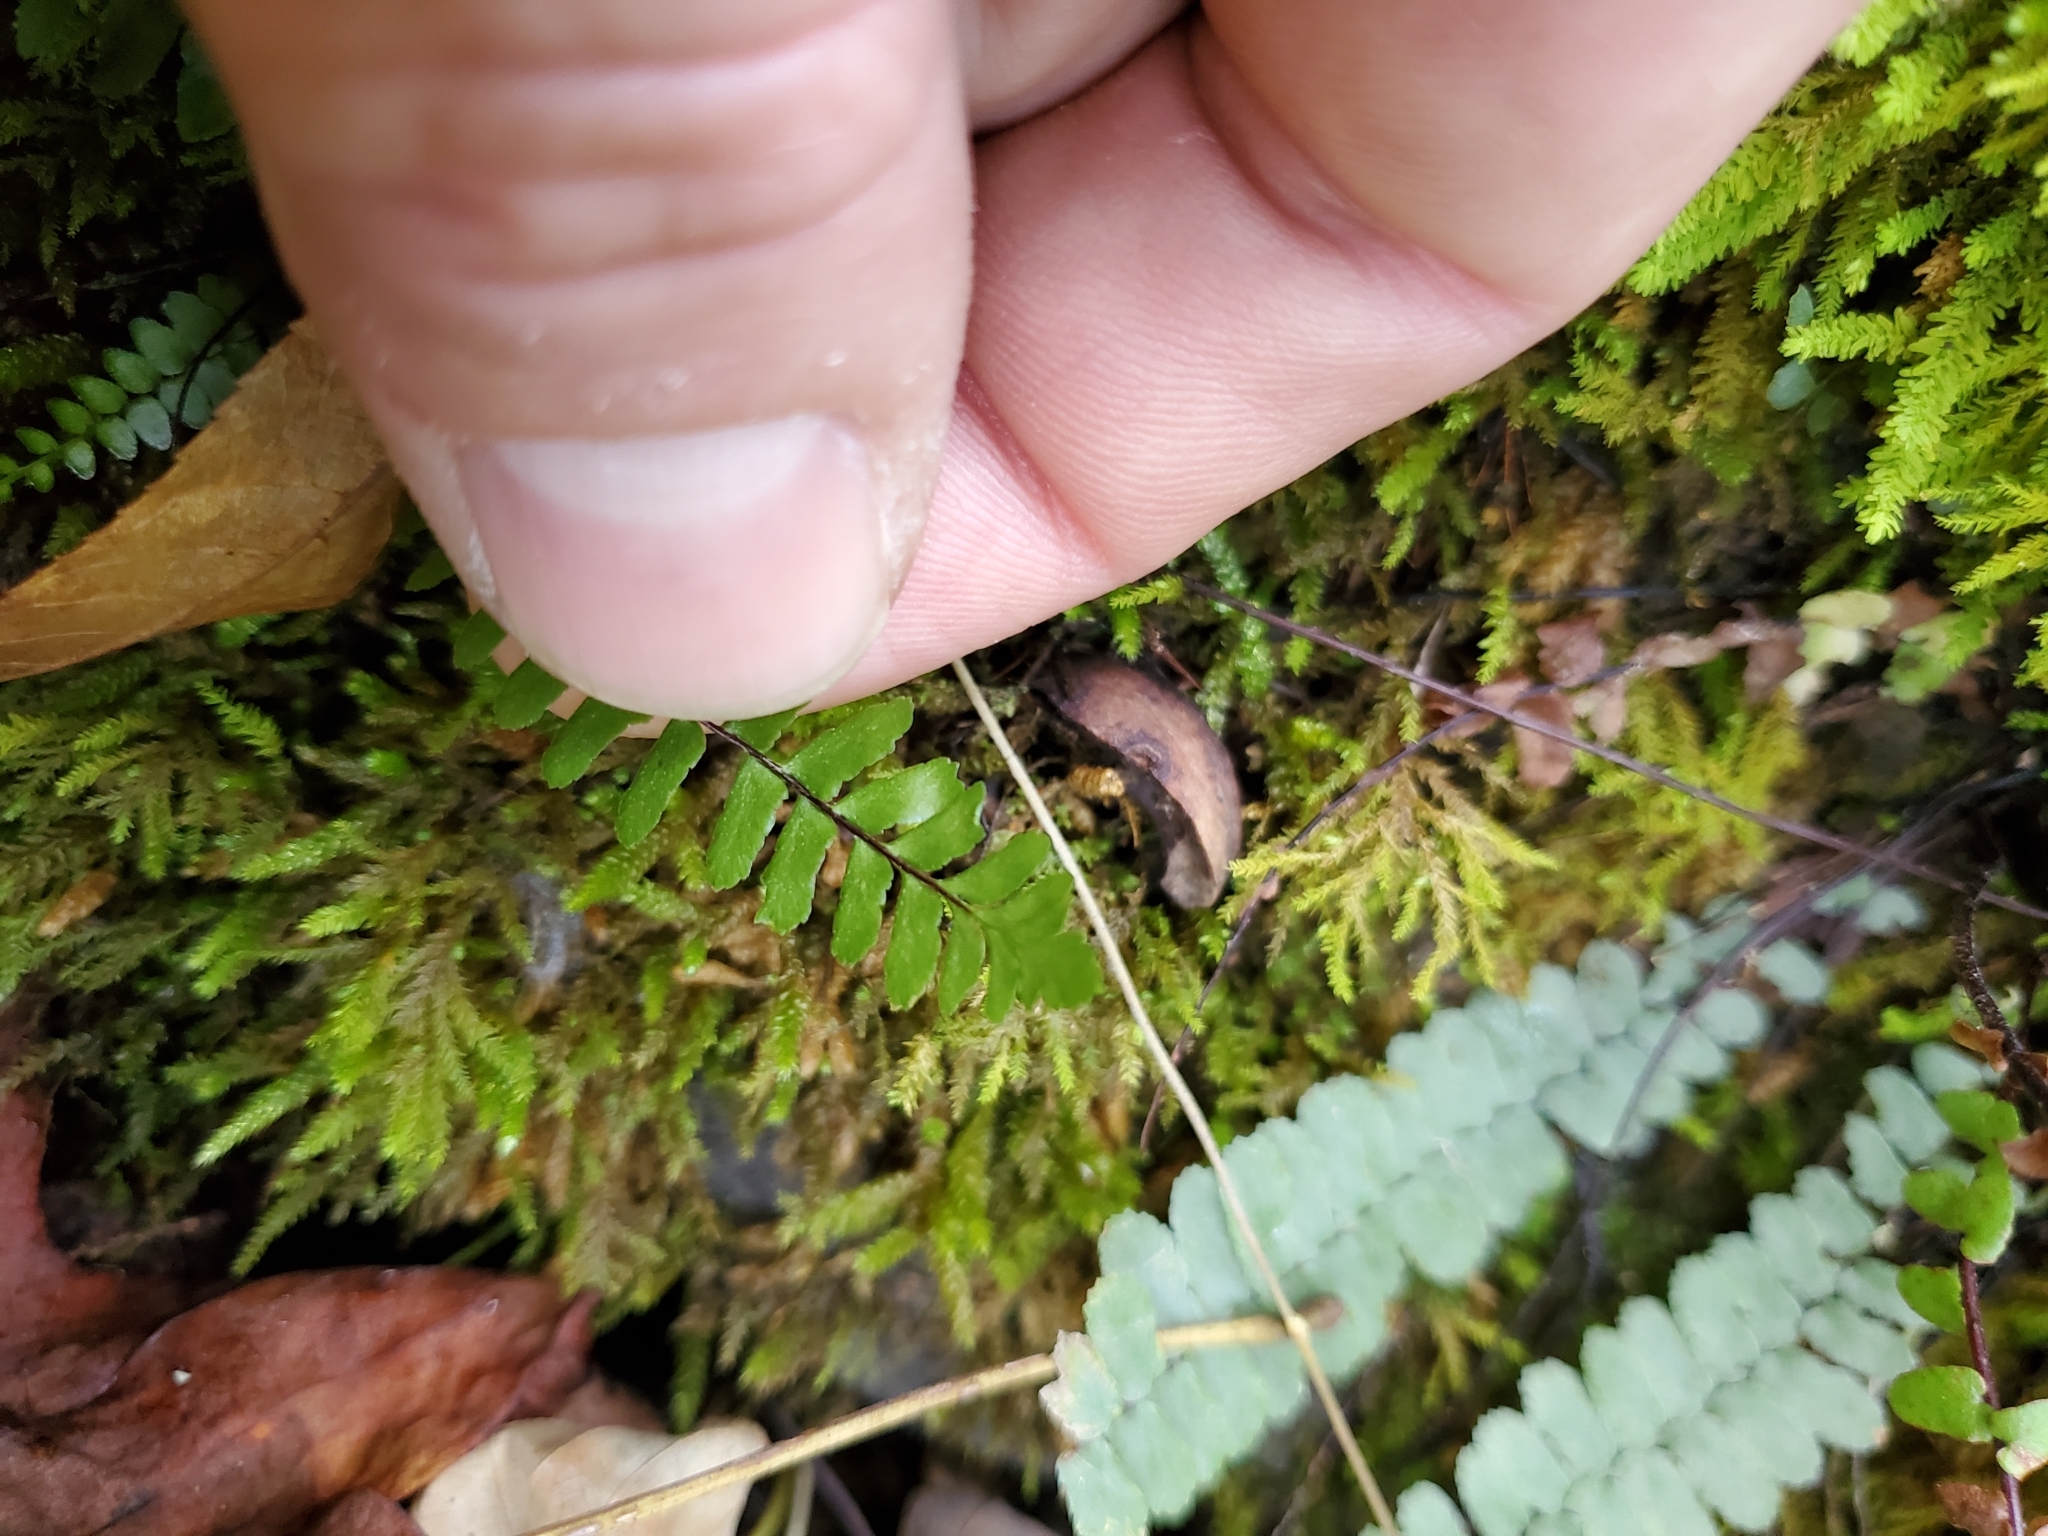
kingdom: Plantae
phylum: Tracheophyta
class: Polypodiopsida
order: Polypodiales
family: Aspleniaceae
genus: Asplenium
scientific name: Asplenium platyneuron
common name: Ebony spleenwort
